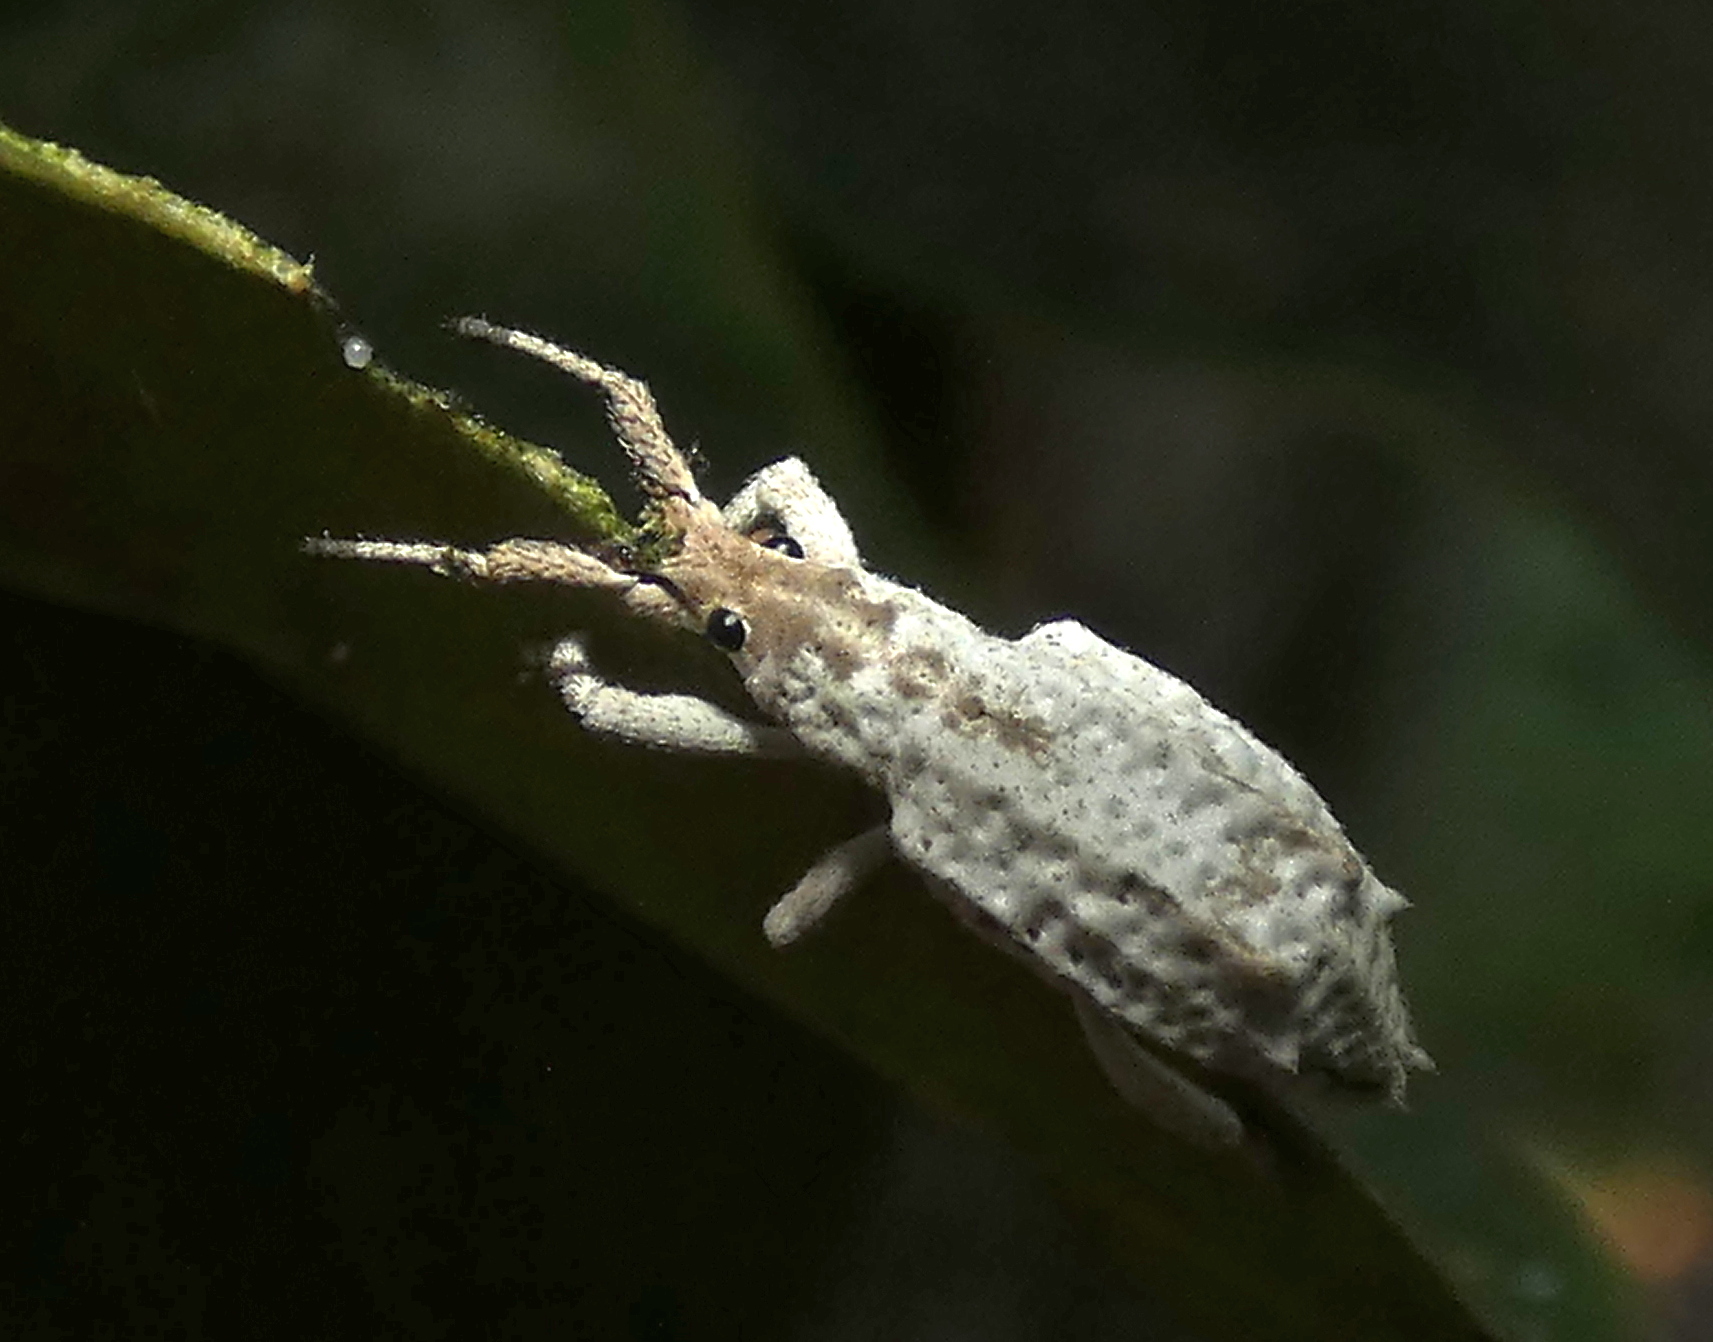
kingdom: Animalia
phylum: Arthropoda
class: Insecta
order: Coleoptera
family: Curculionidae
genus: Compsus
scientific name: Compsus niveus
